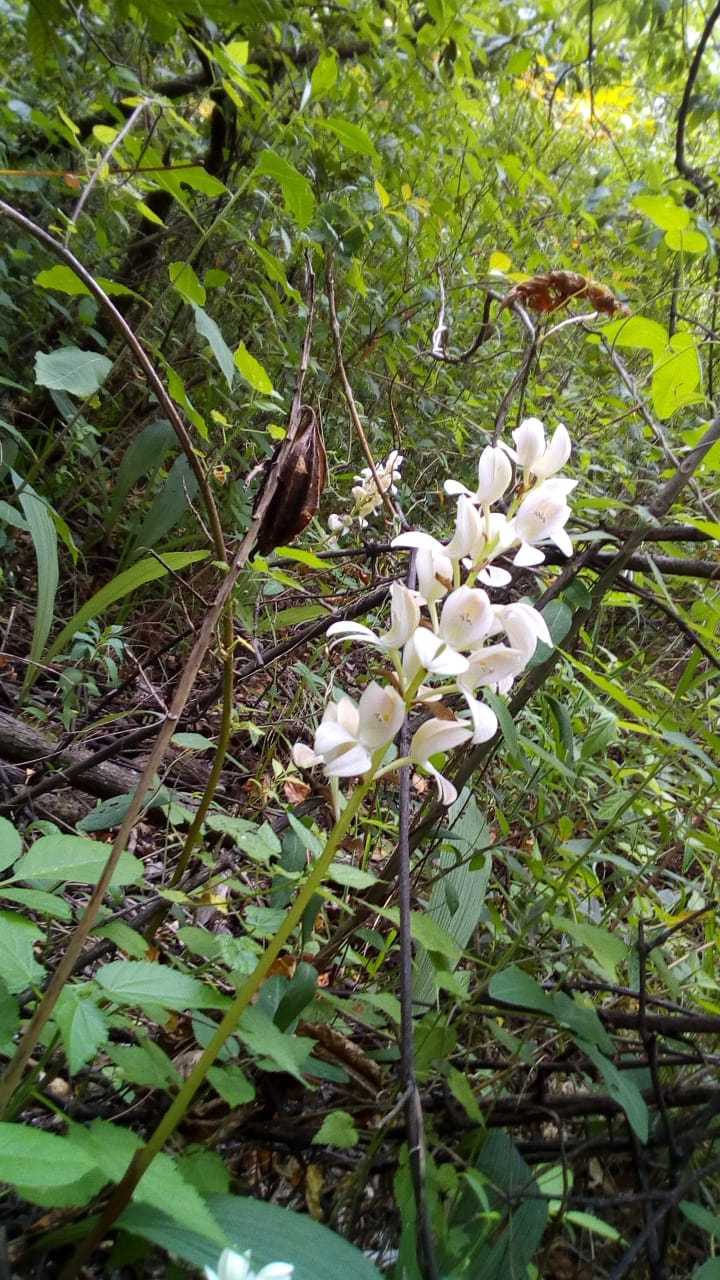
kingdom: Plantae
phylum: Tracheophyta
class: Liliopsida
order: Asparagales
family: Orchidaceae
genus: Govenia
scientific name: Govenia liliacea
